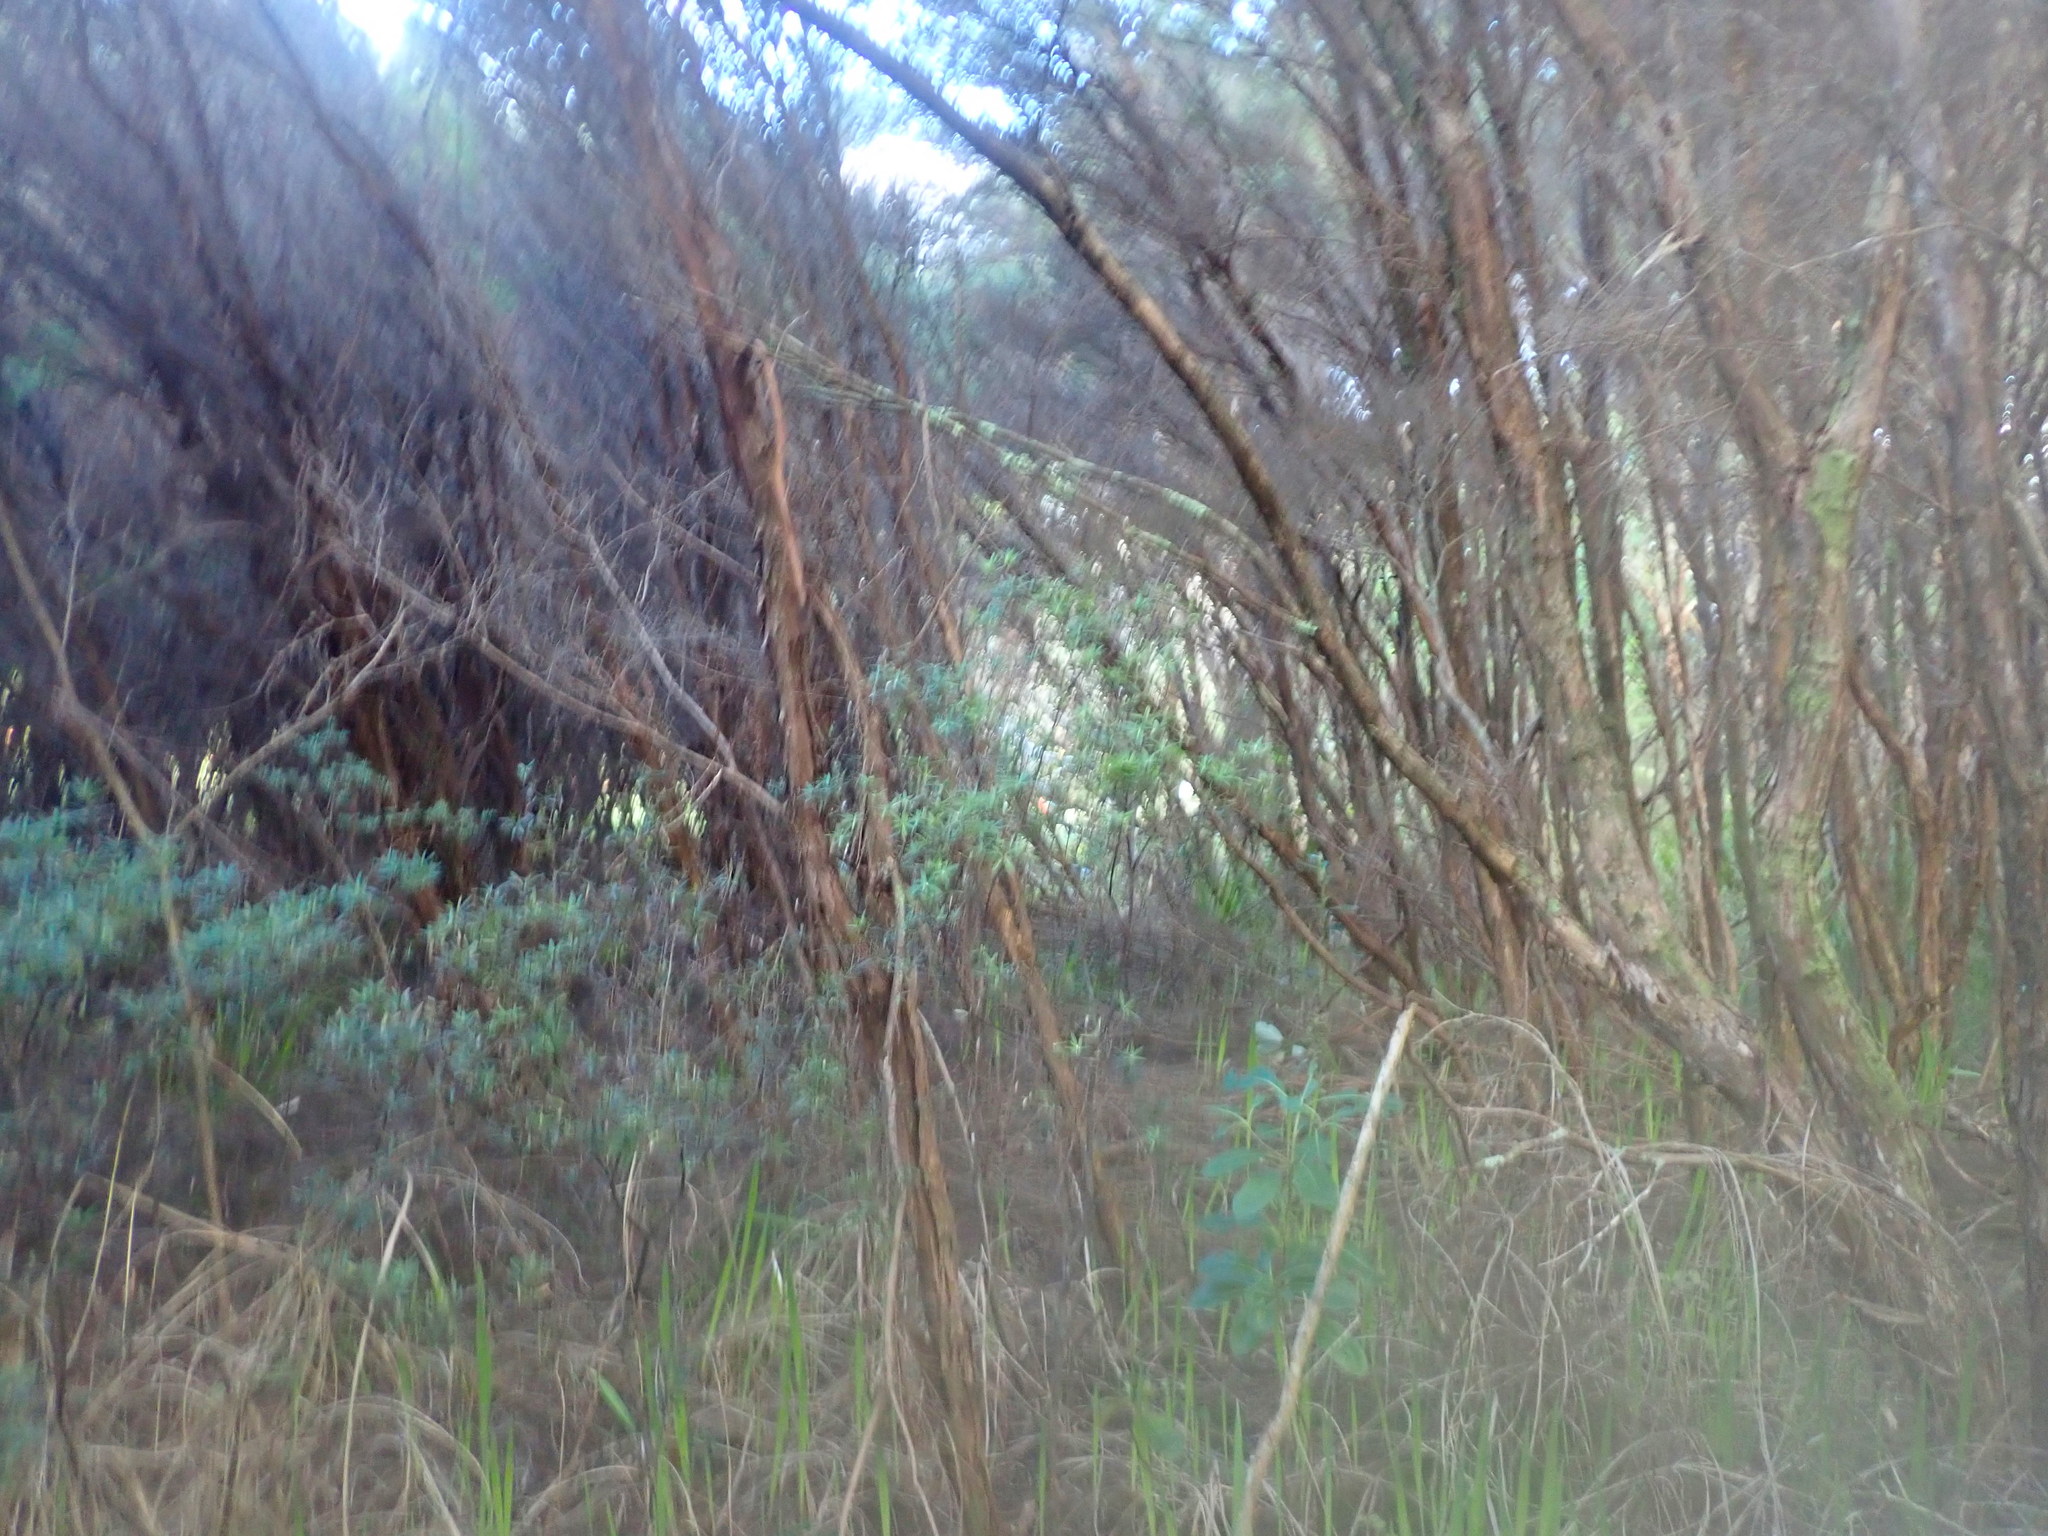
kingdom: Plantae
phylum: Tracheophyta
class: Liliopsida
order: Asparagales
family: Iridaceae
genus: Watsonia
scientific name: Watsonia meriana
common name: Bulbil bugle-lily
